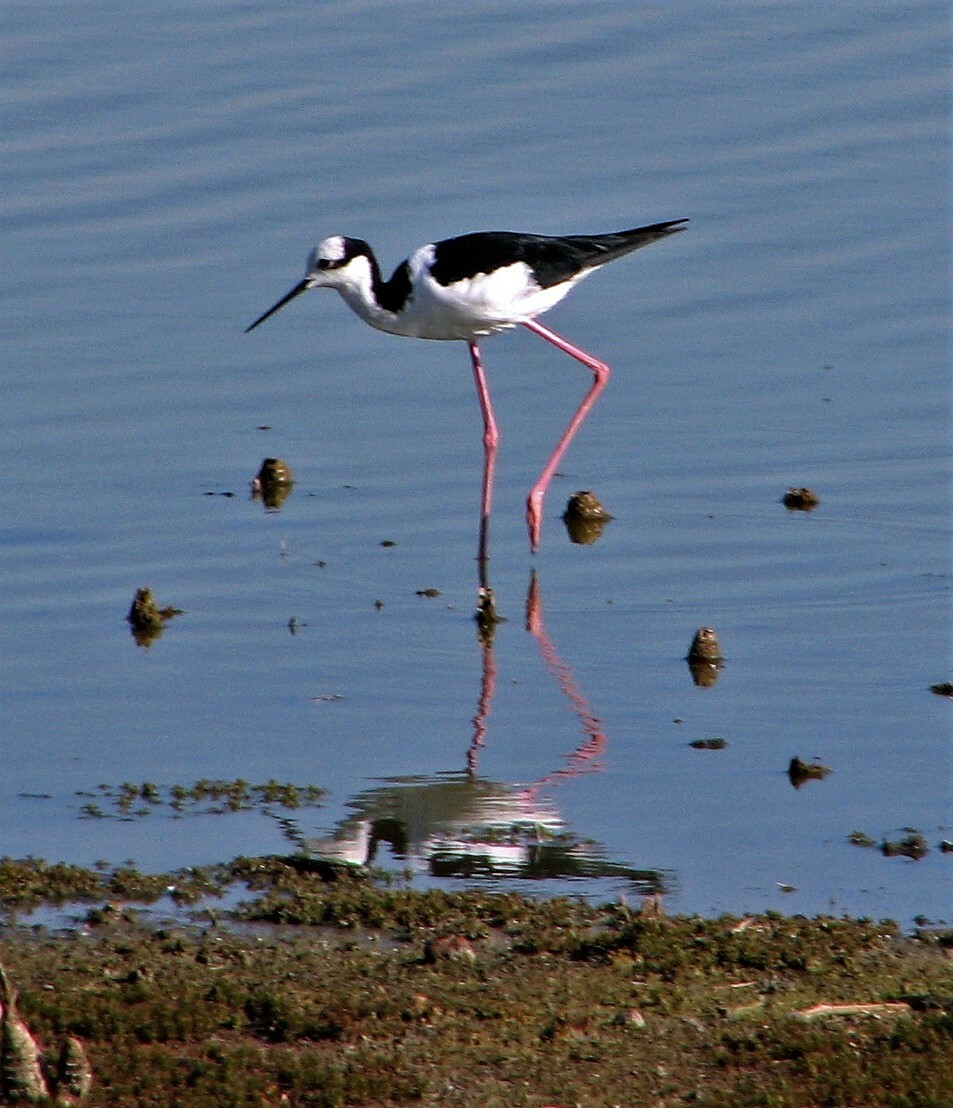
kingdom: Animalia
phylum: Chordata
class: Aves
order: Charadriiformes
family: Recurvirostridae
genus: Himantopus
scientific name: Himantopus mexicanus
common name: Black-necked stilt
